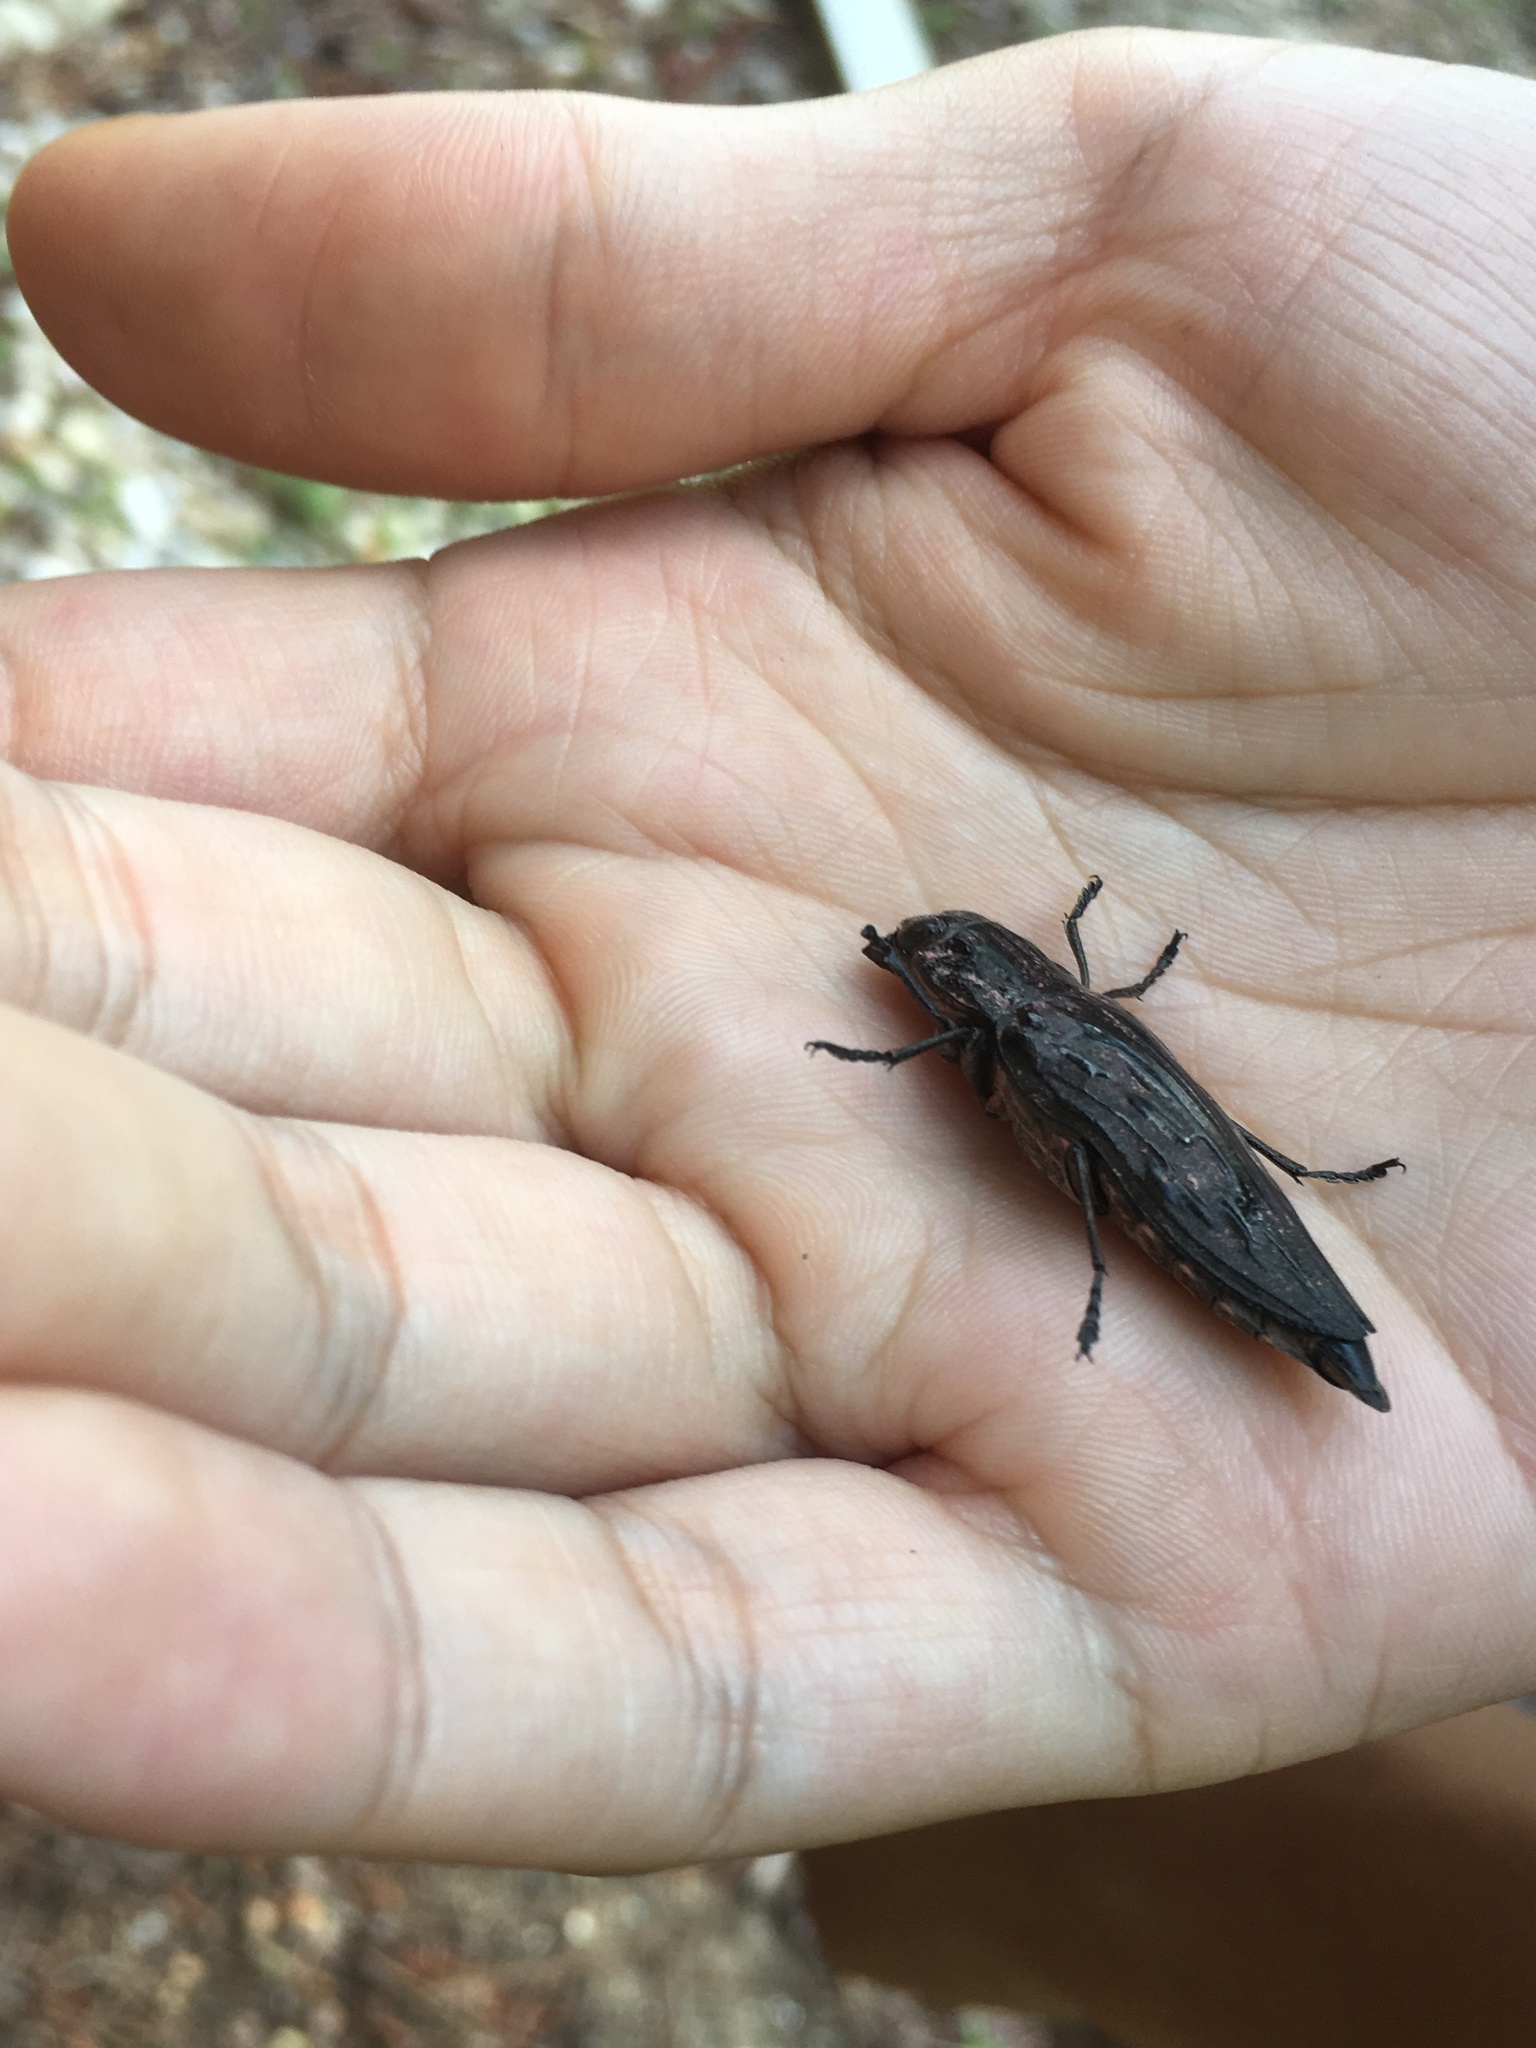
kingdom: Animalia
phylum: Arthropoda
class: Insecta
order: Coleoptera
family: Buprestidae
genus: Chalcophora
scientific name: Chalcophora virginiensis
